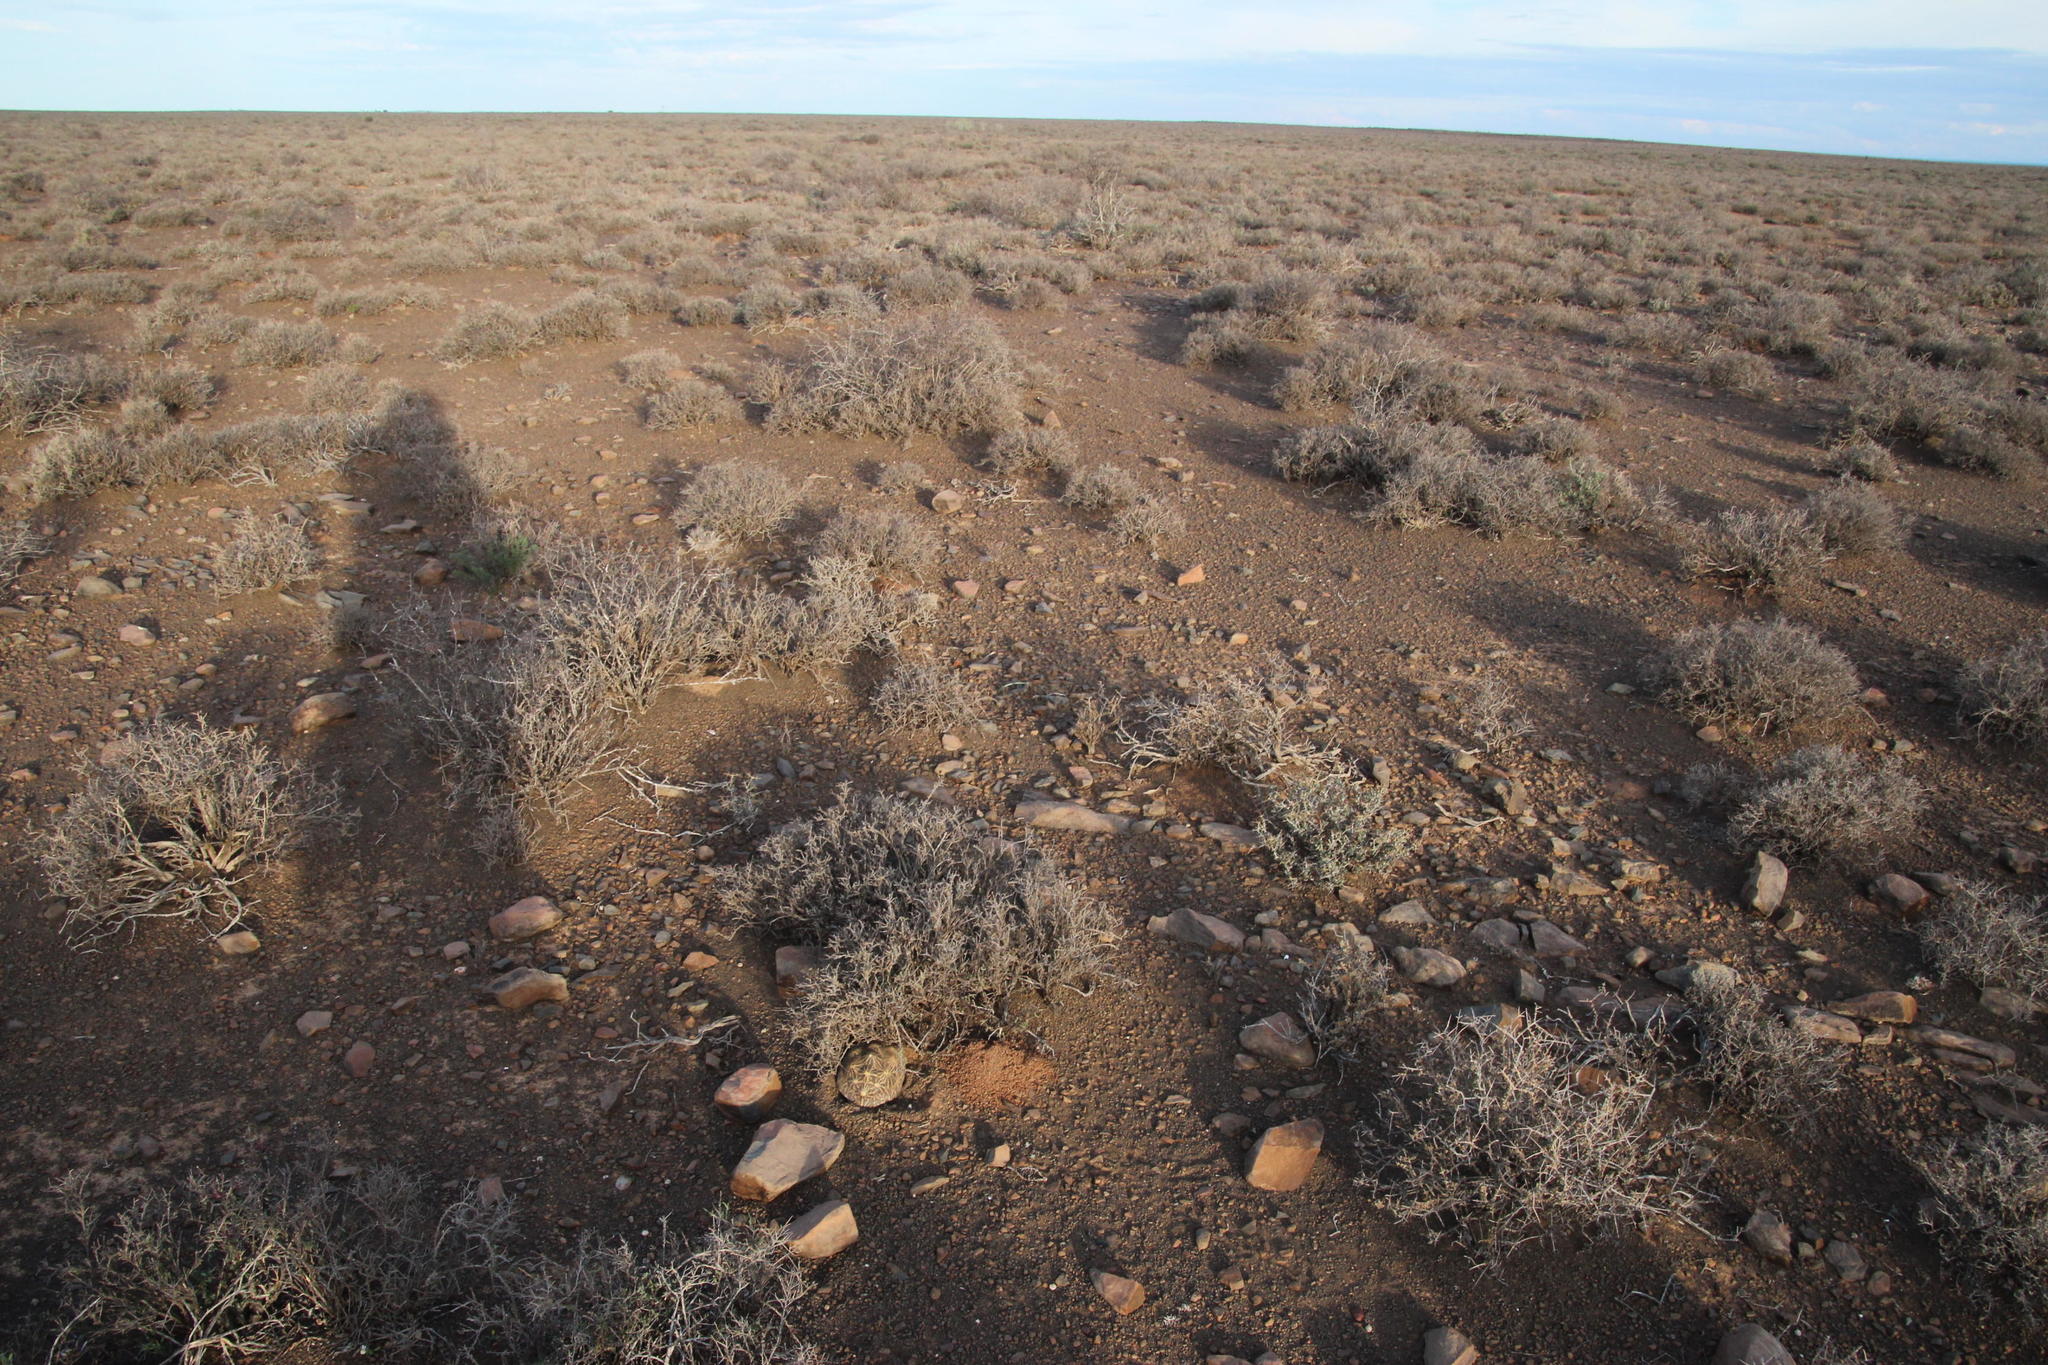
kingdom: Animalia
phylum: Chordata
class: Testudines
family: Testudinidae
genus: Psammobates
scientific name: Psammobates tentorius
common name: Tent tortoise
